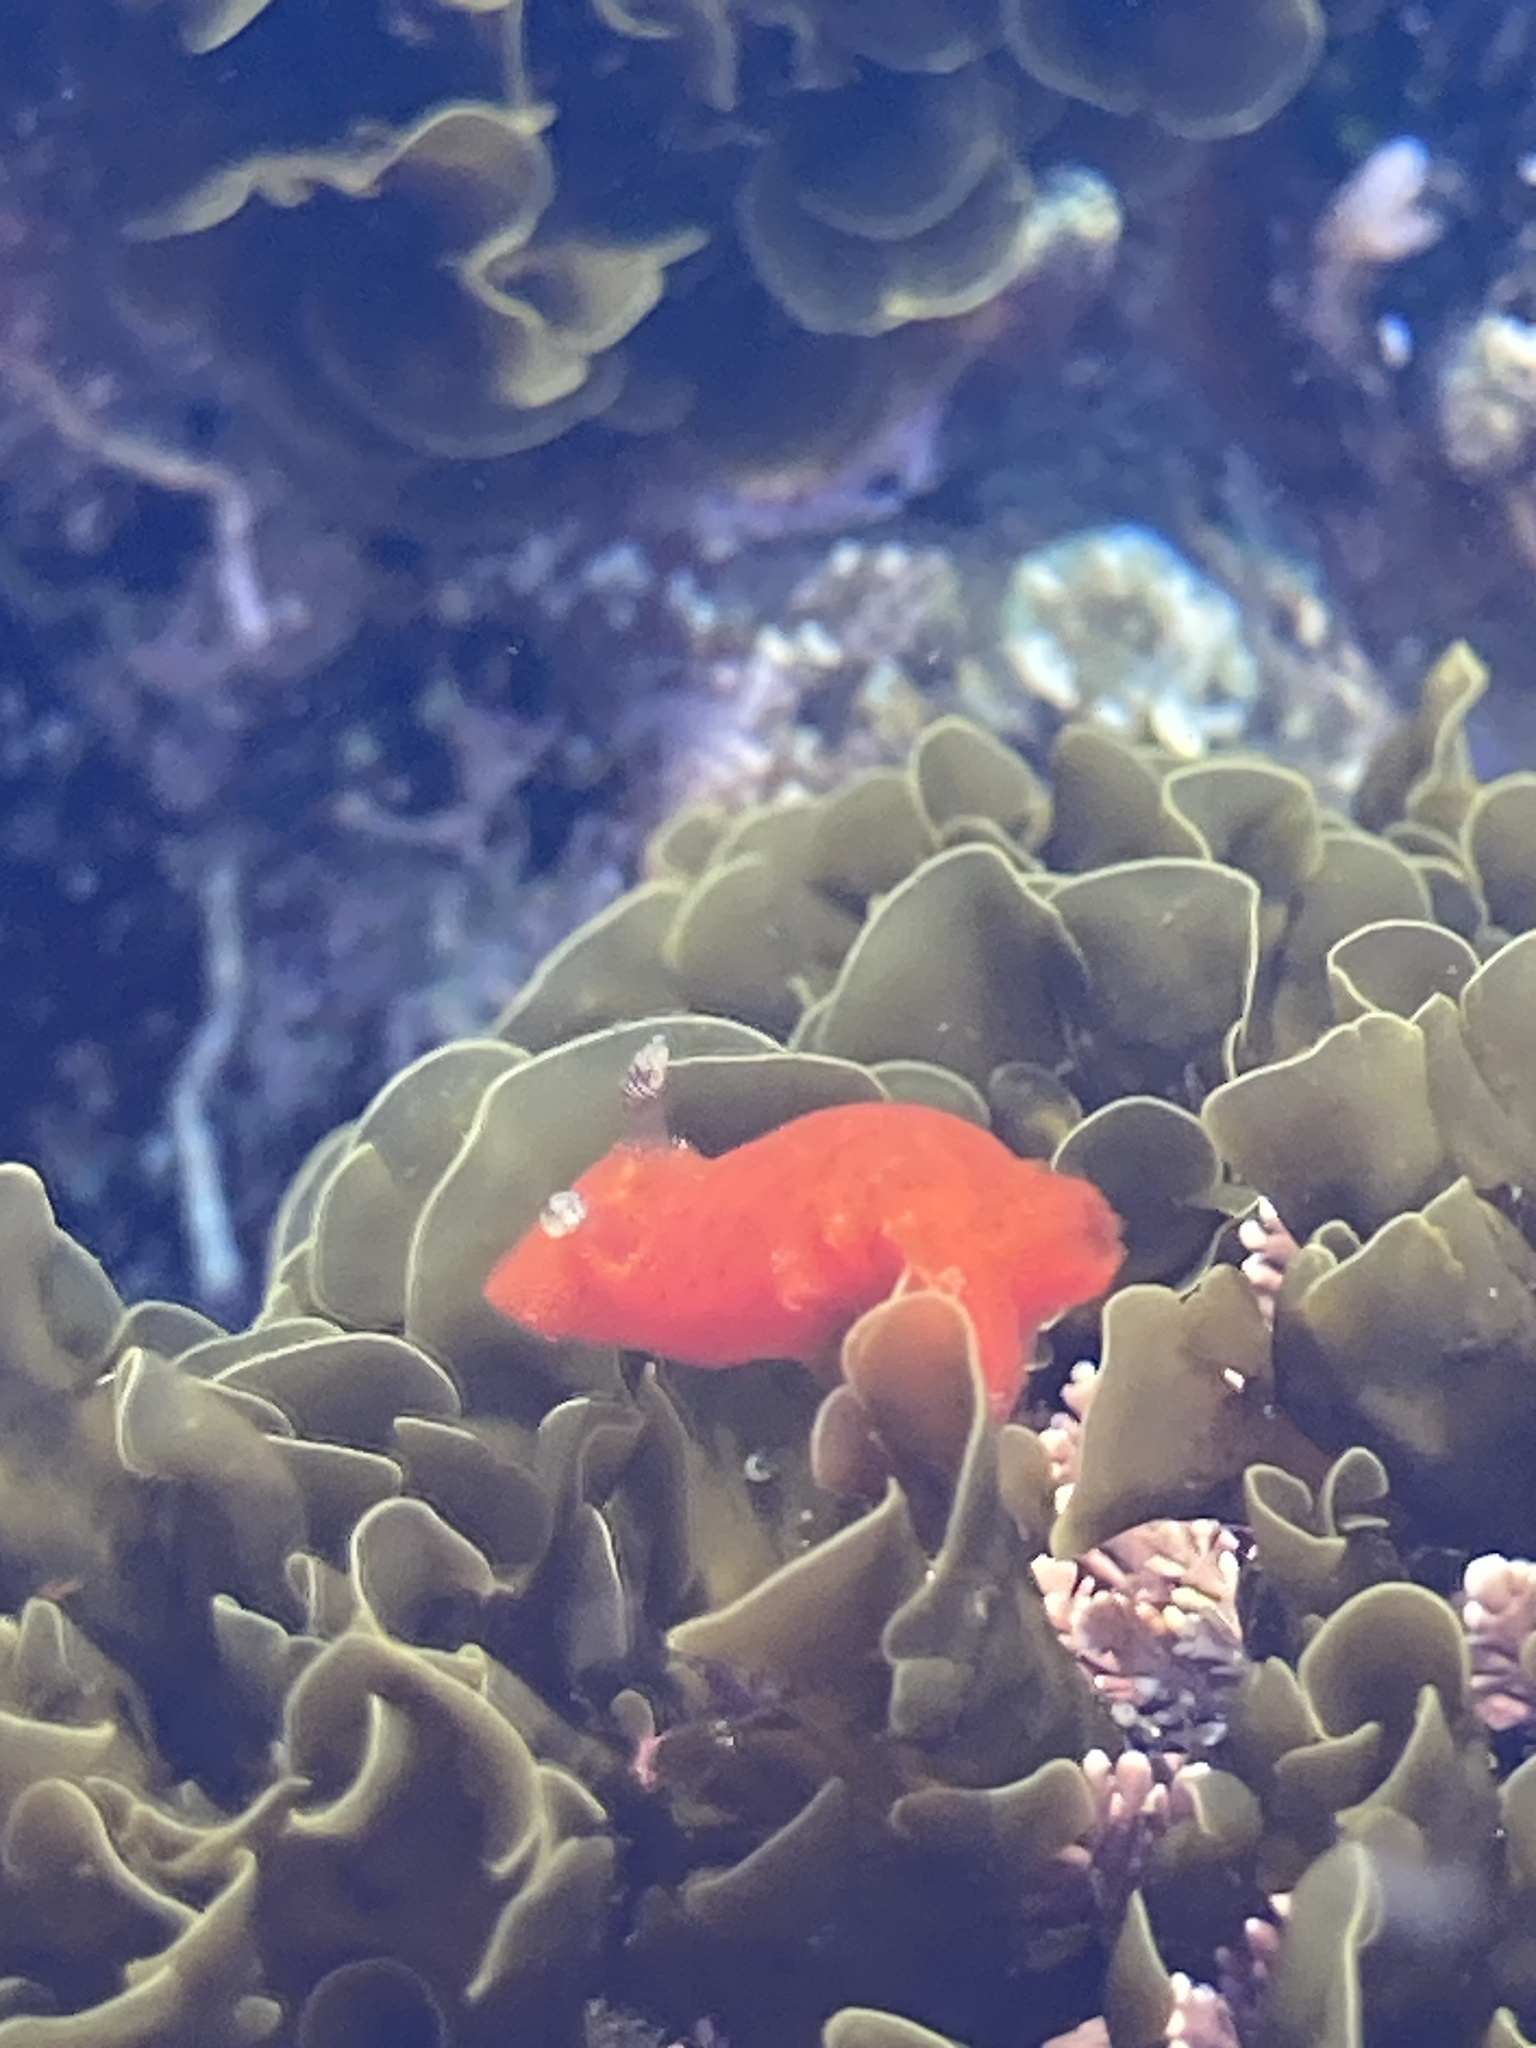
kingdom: Animalia
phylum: Mollusca
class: Gastropoda
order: Nudibranchia
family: Discodorididae
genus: Rostanga
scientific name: Rostanga arbutus
